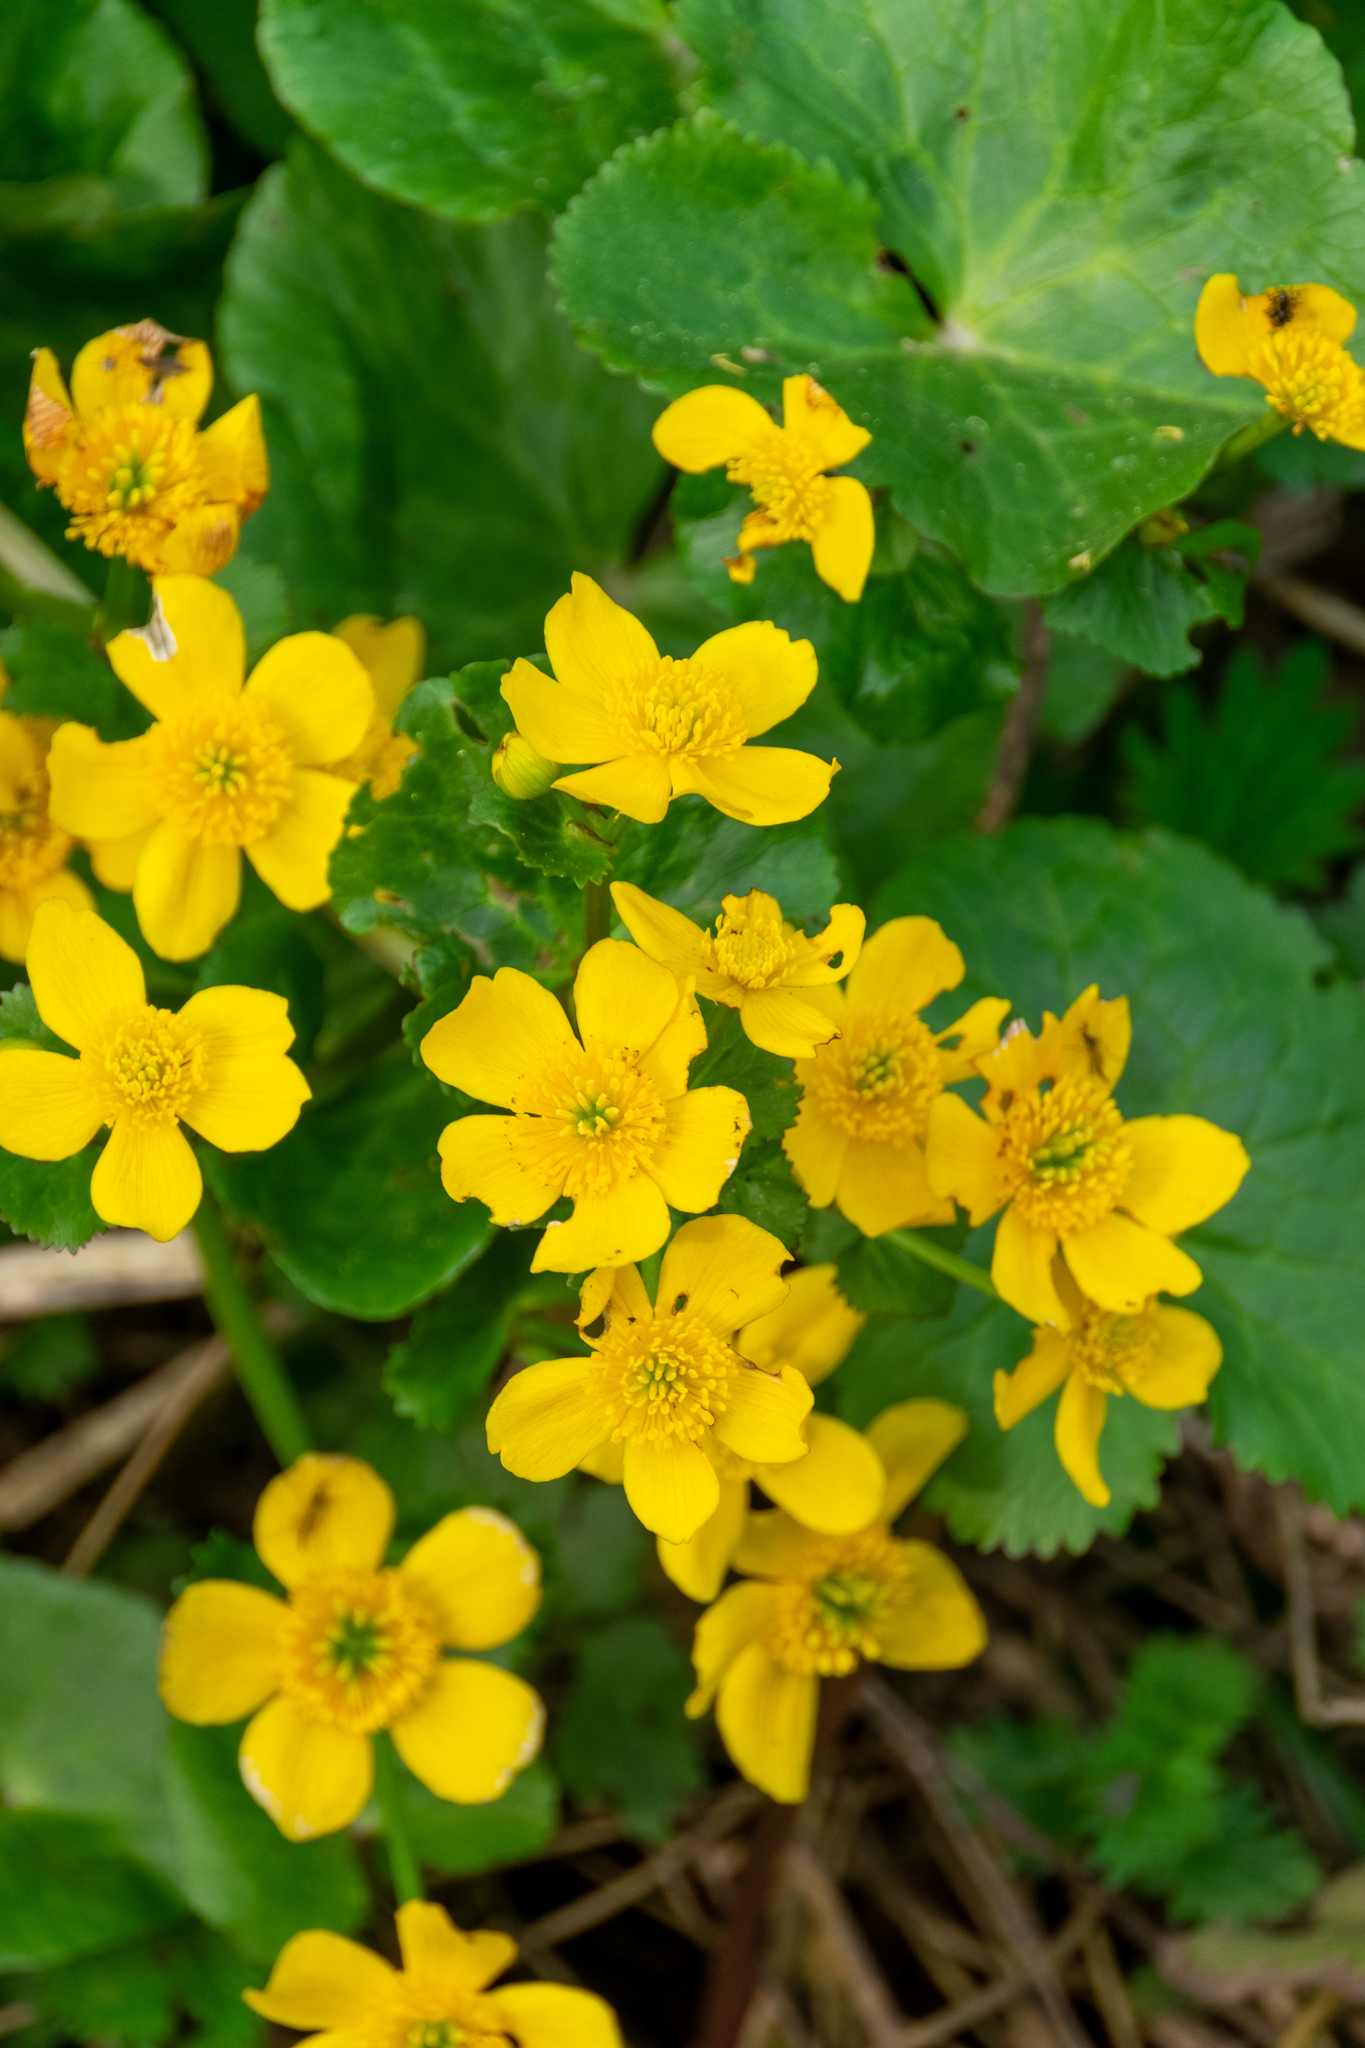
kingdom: Plantae
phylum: Tracheophyta
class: Magnoliopsida
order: Ranunculales
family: Ranunculaceae
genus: Caltha
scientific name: Caltha palustris
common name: Marsh marigold
